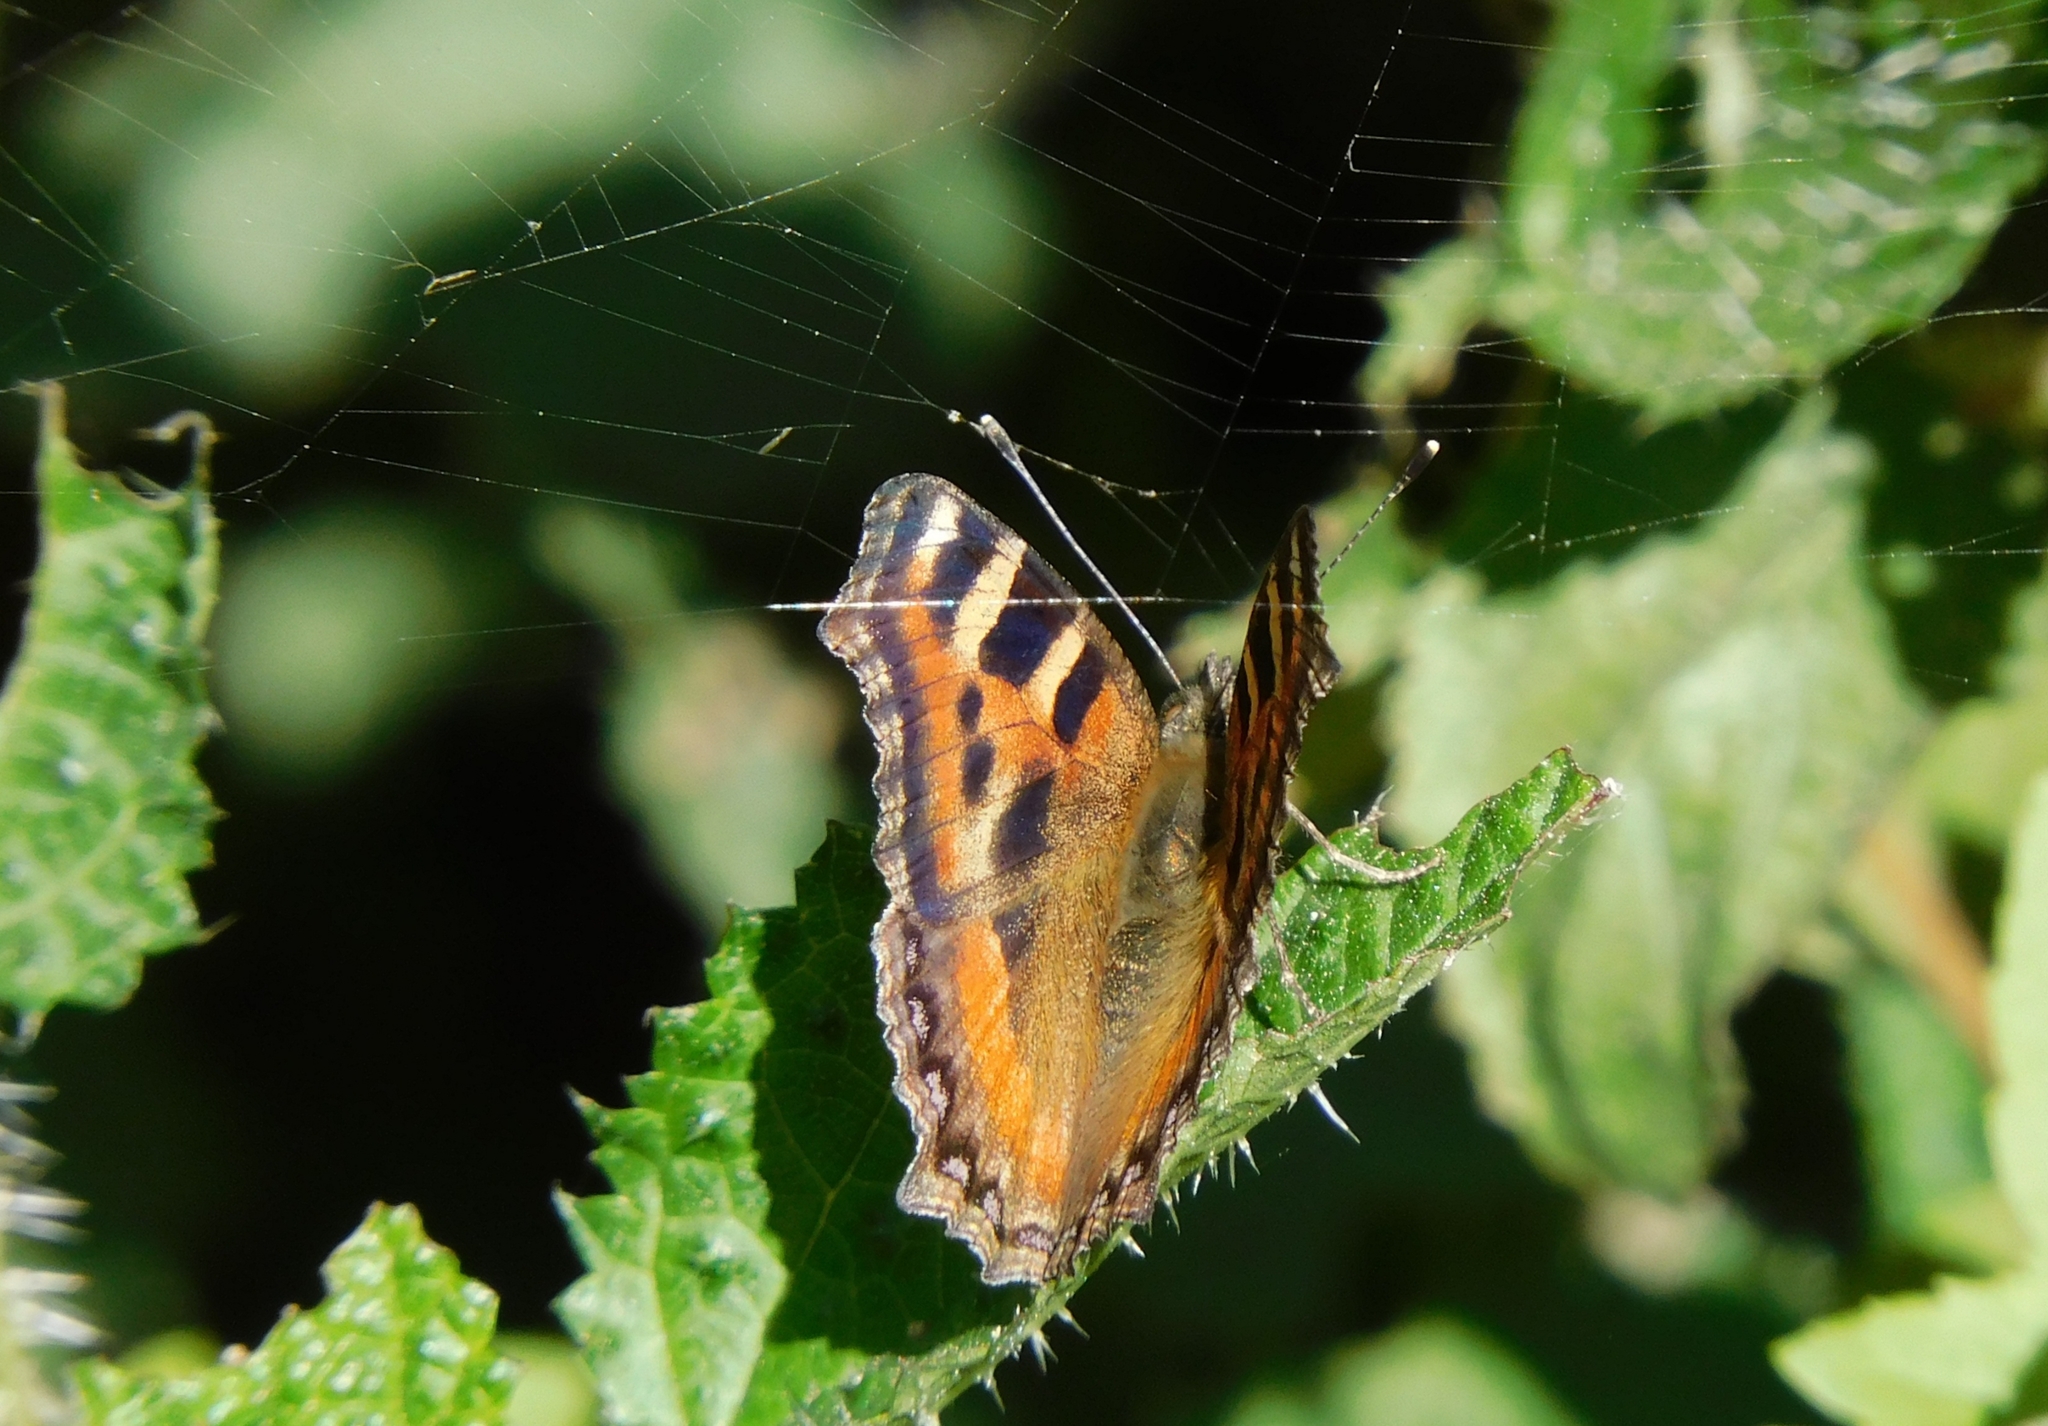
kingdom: Animalia
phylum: Arthropoda
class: Insecta
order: Lepidoptera
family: Nymphalidae
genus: Aglais
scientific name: Aglais caschmirensis
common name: Indian tortoiseshell
